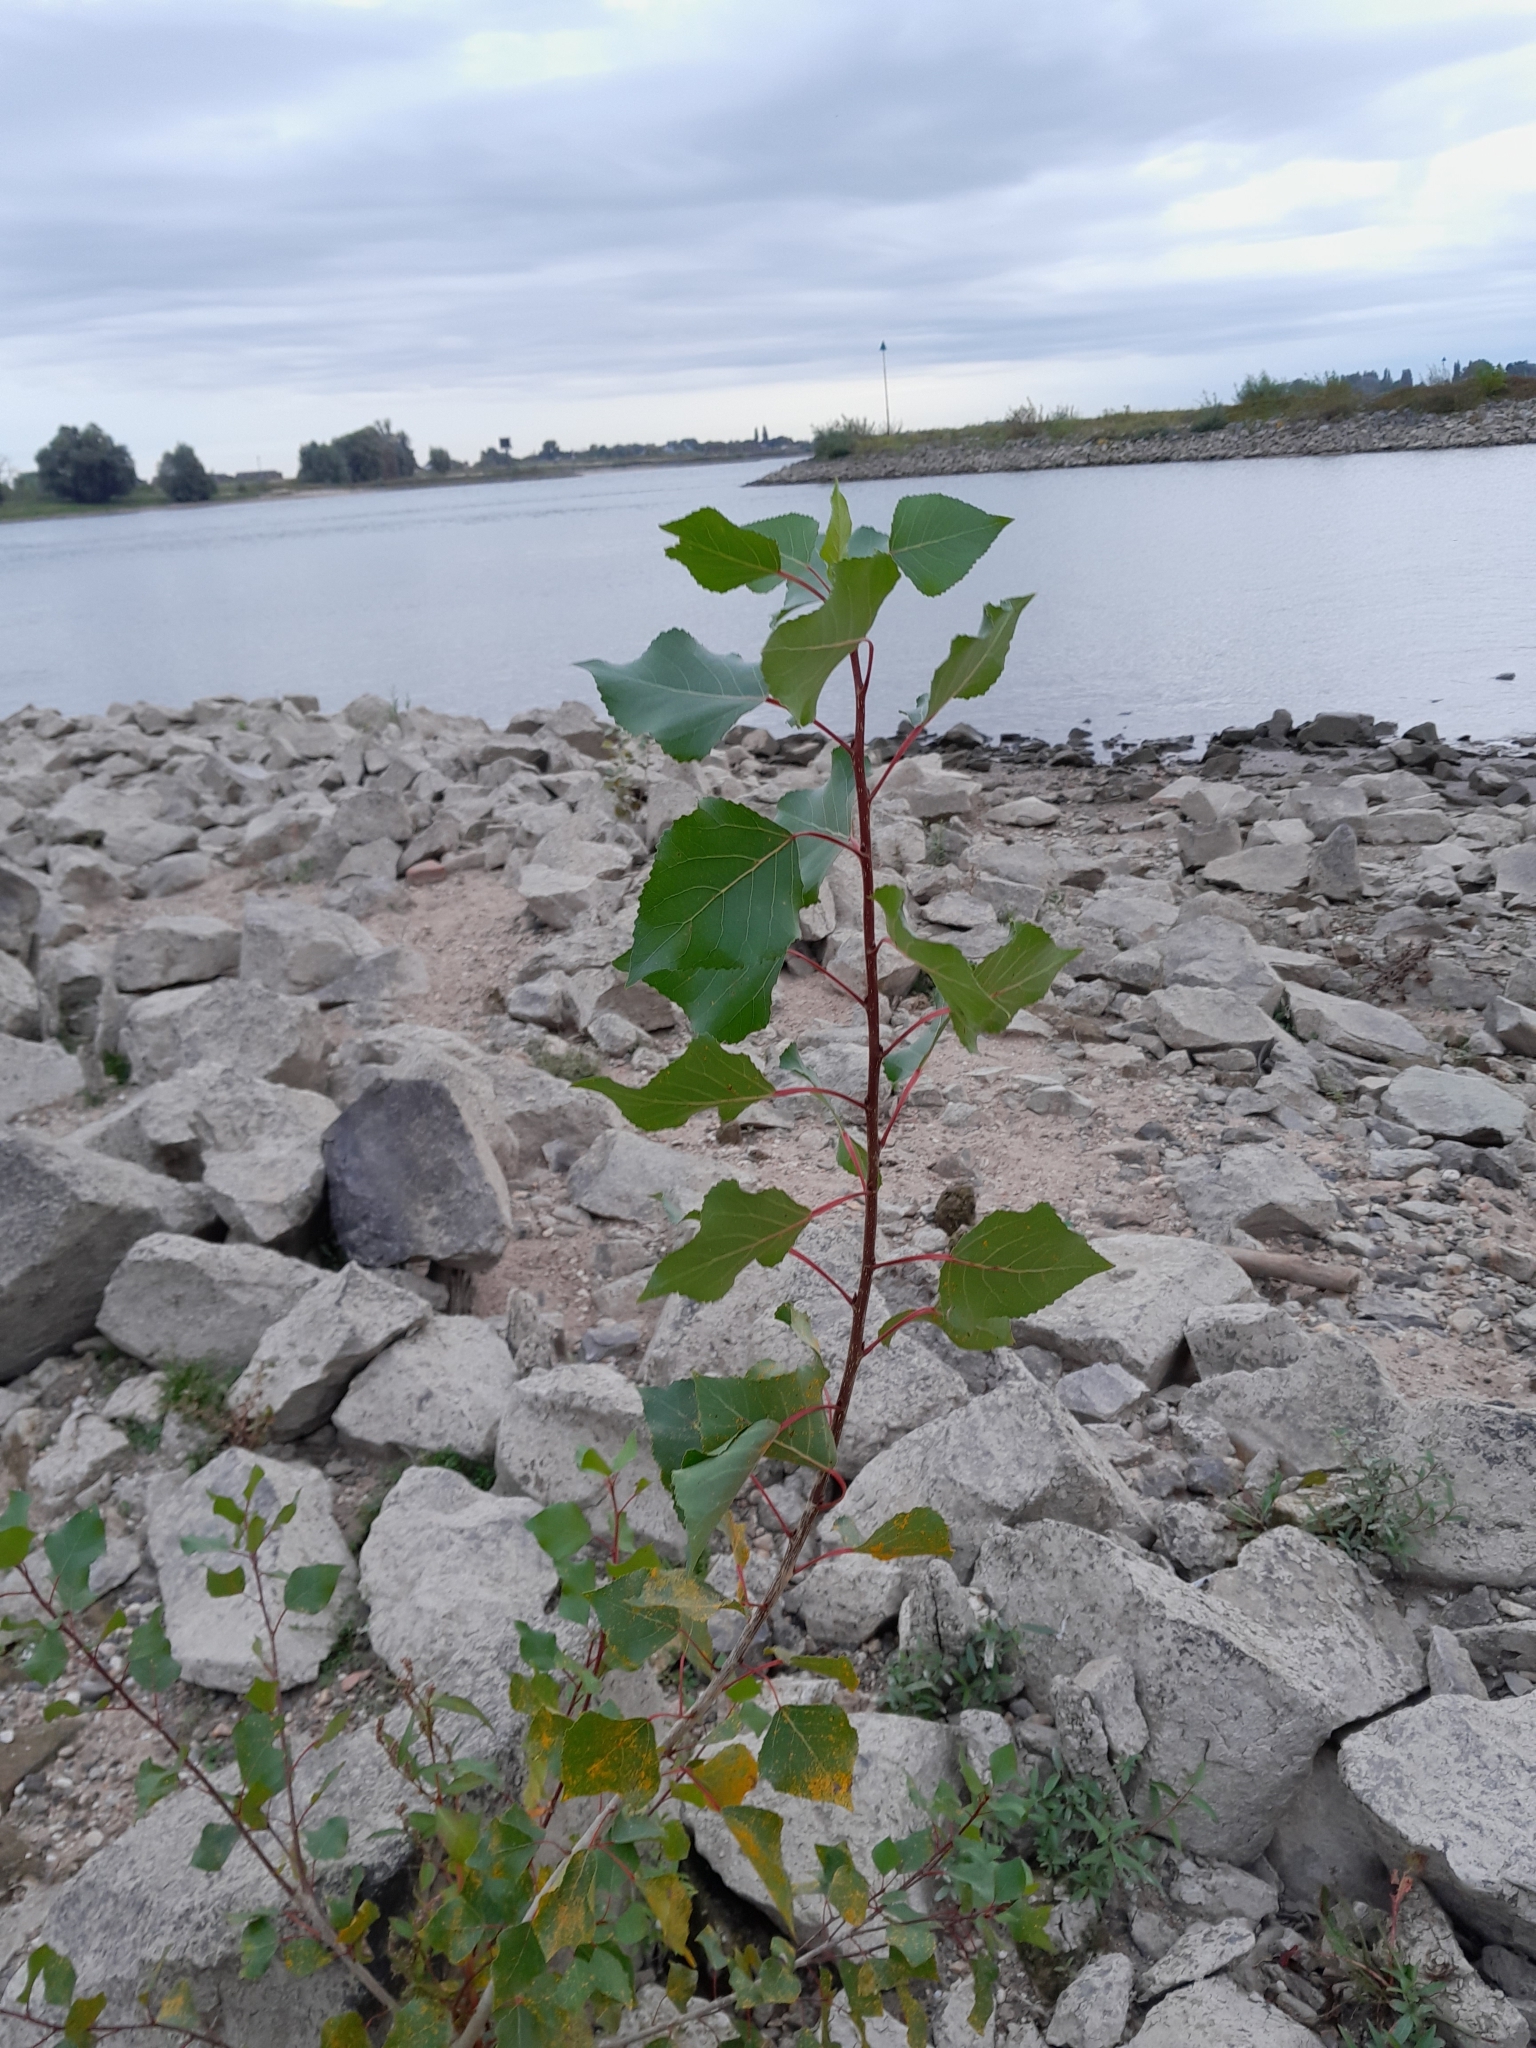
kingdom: Plantae
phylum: Tracheophyta
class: Magnoliopsida
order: Malpighiales
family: Salicaceae
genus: Populus
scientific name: Populus nigra
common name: Black poplar
